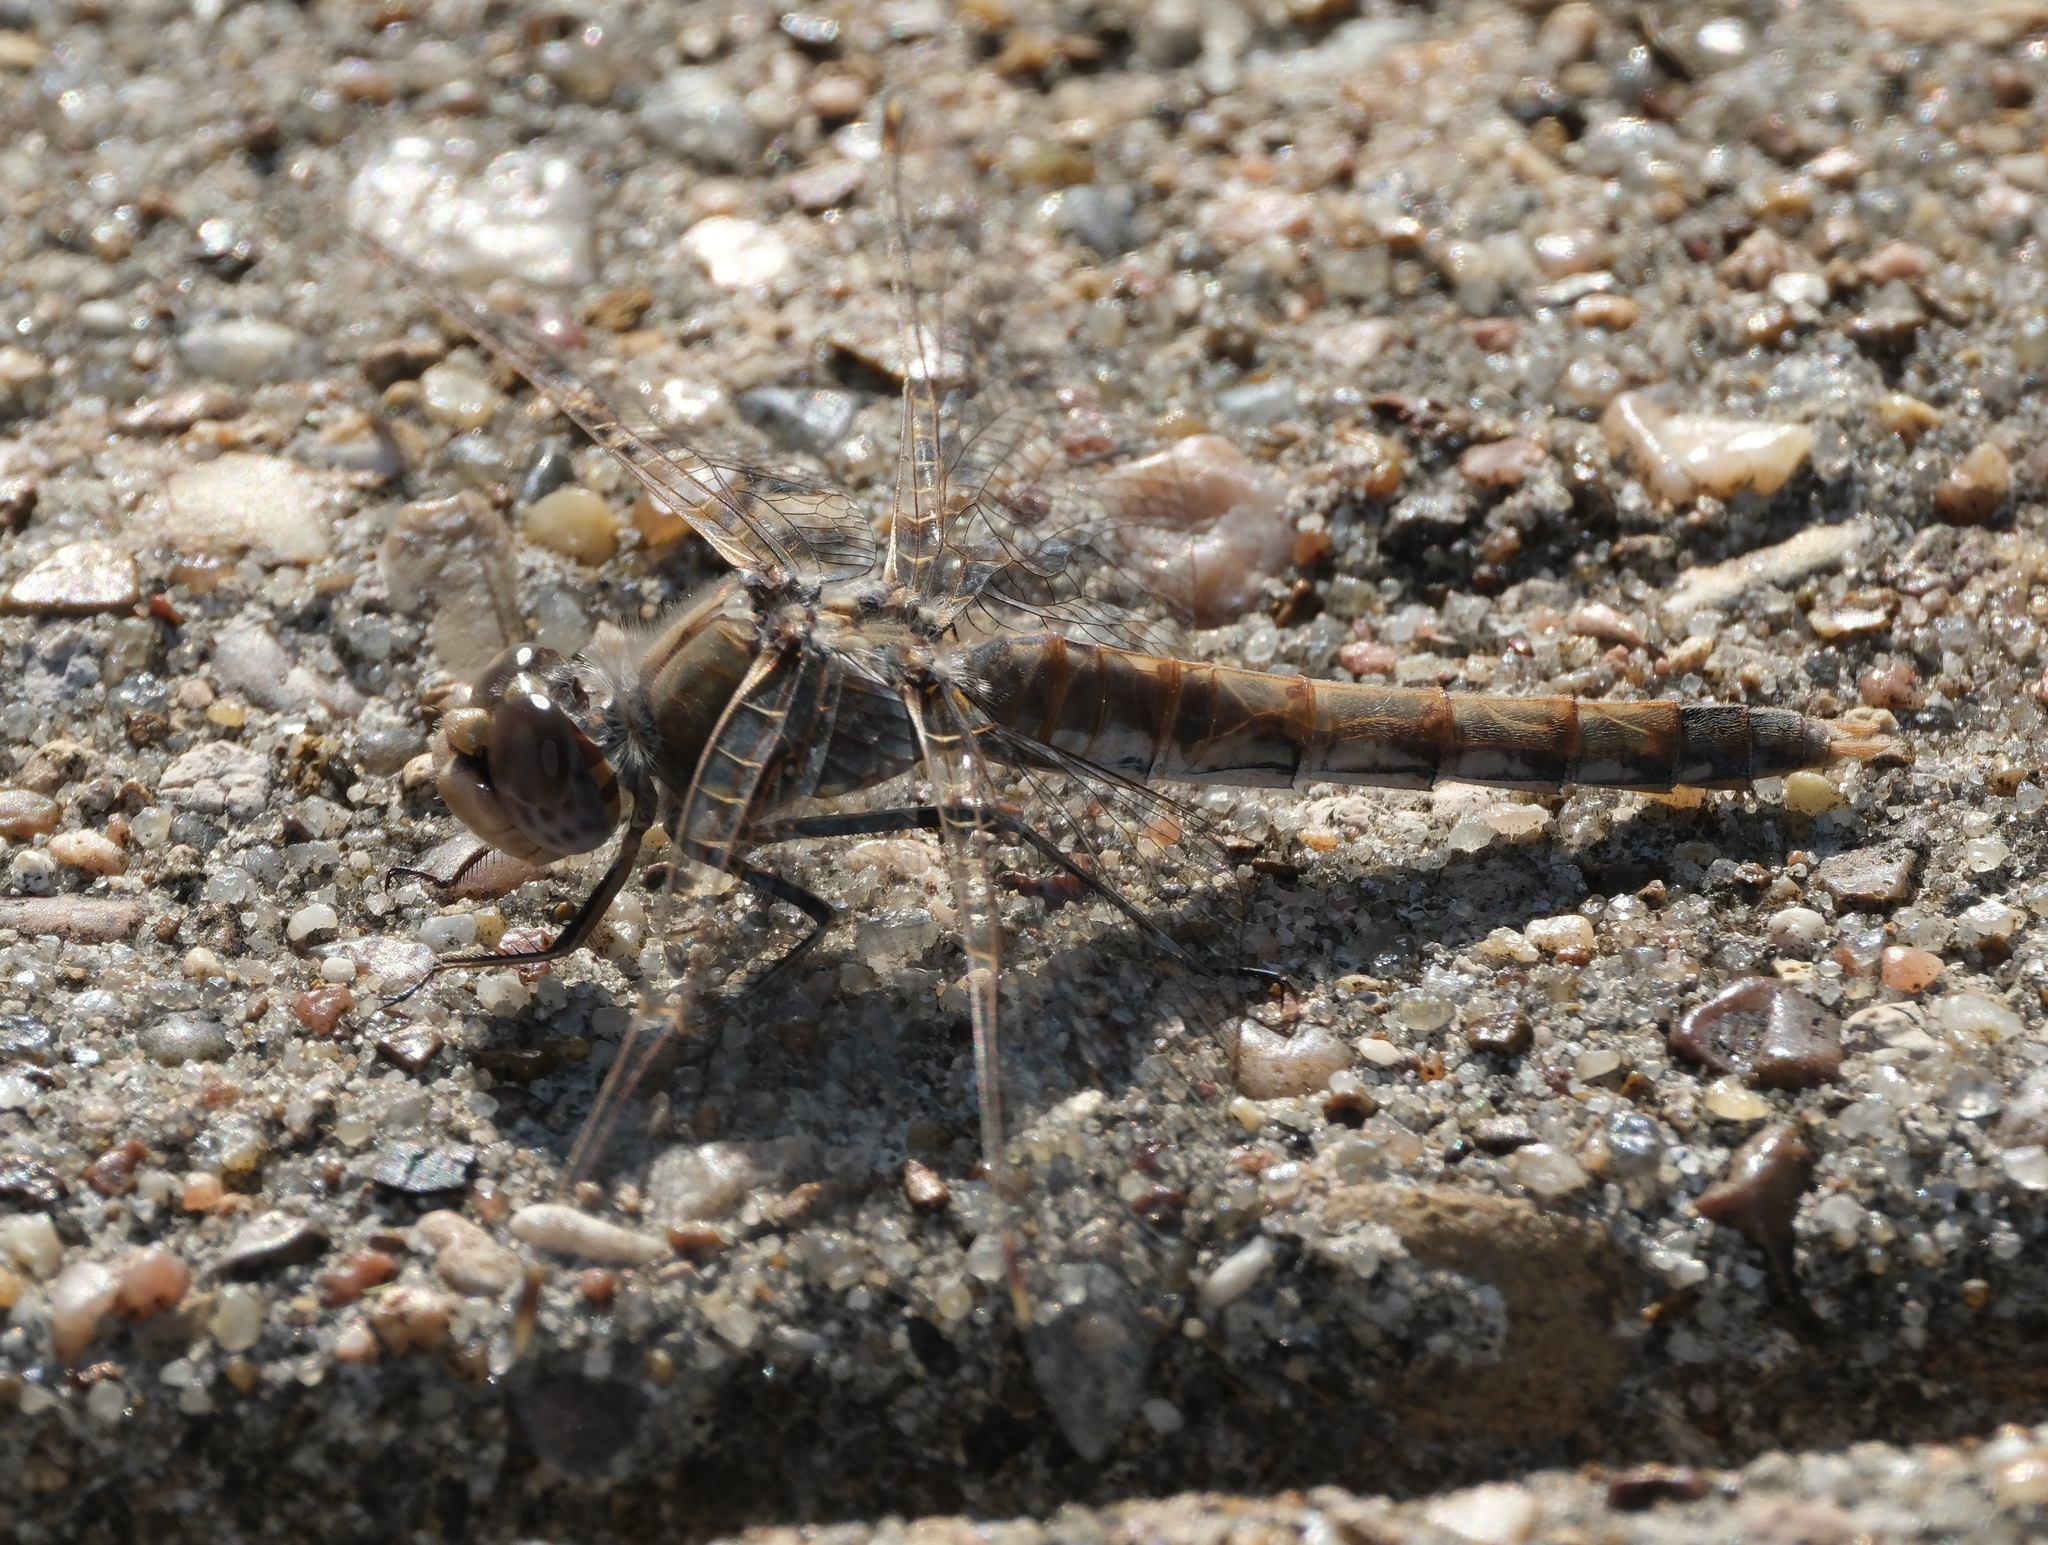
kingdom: Animalia
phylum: Arthropoda
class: Insecta
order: Odonata
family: Libellulidae
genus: Sympetrum
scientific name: Sympetrum corruptum
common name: Variegated meadowhawk
